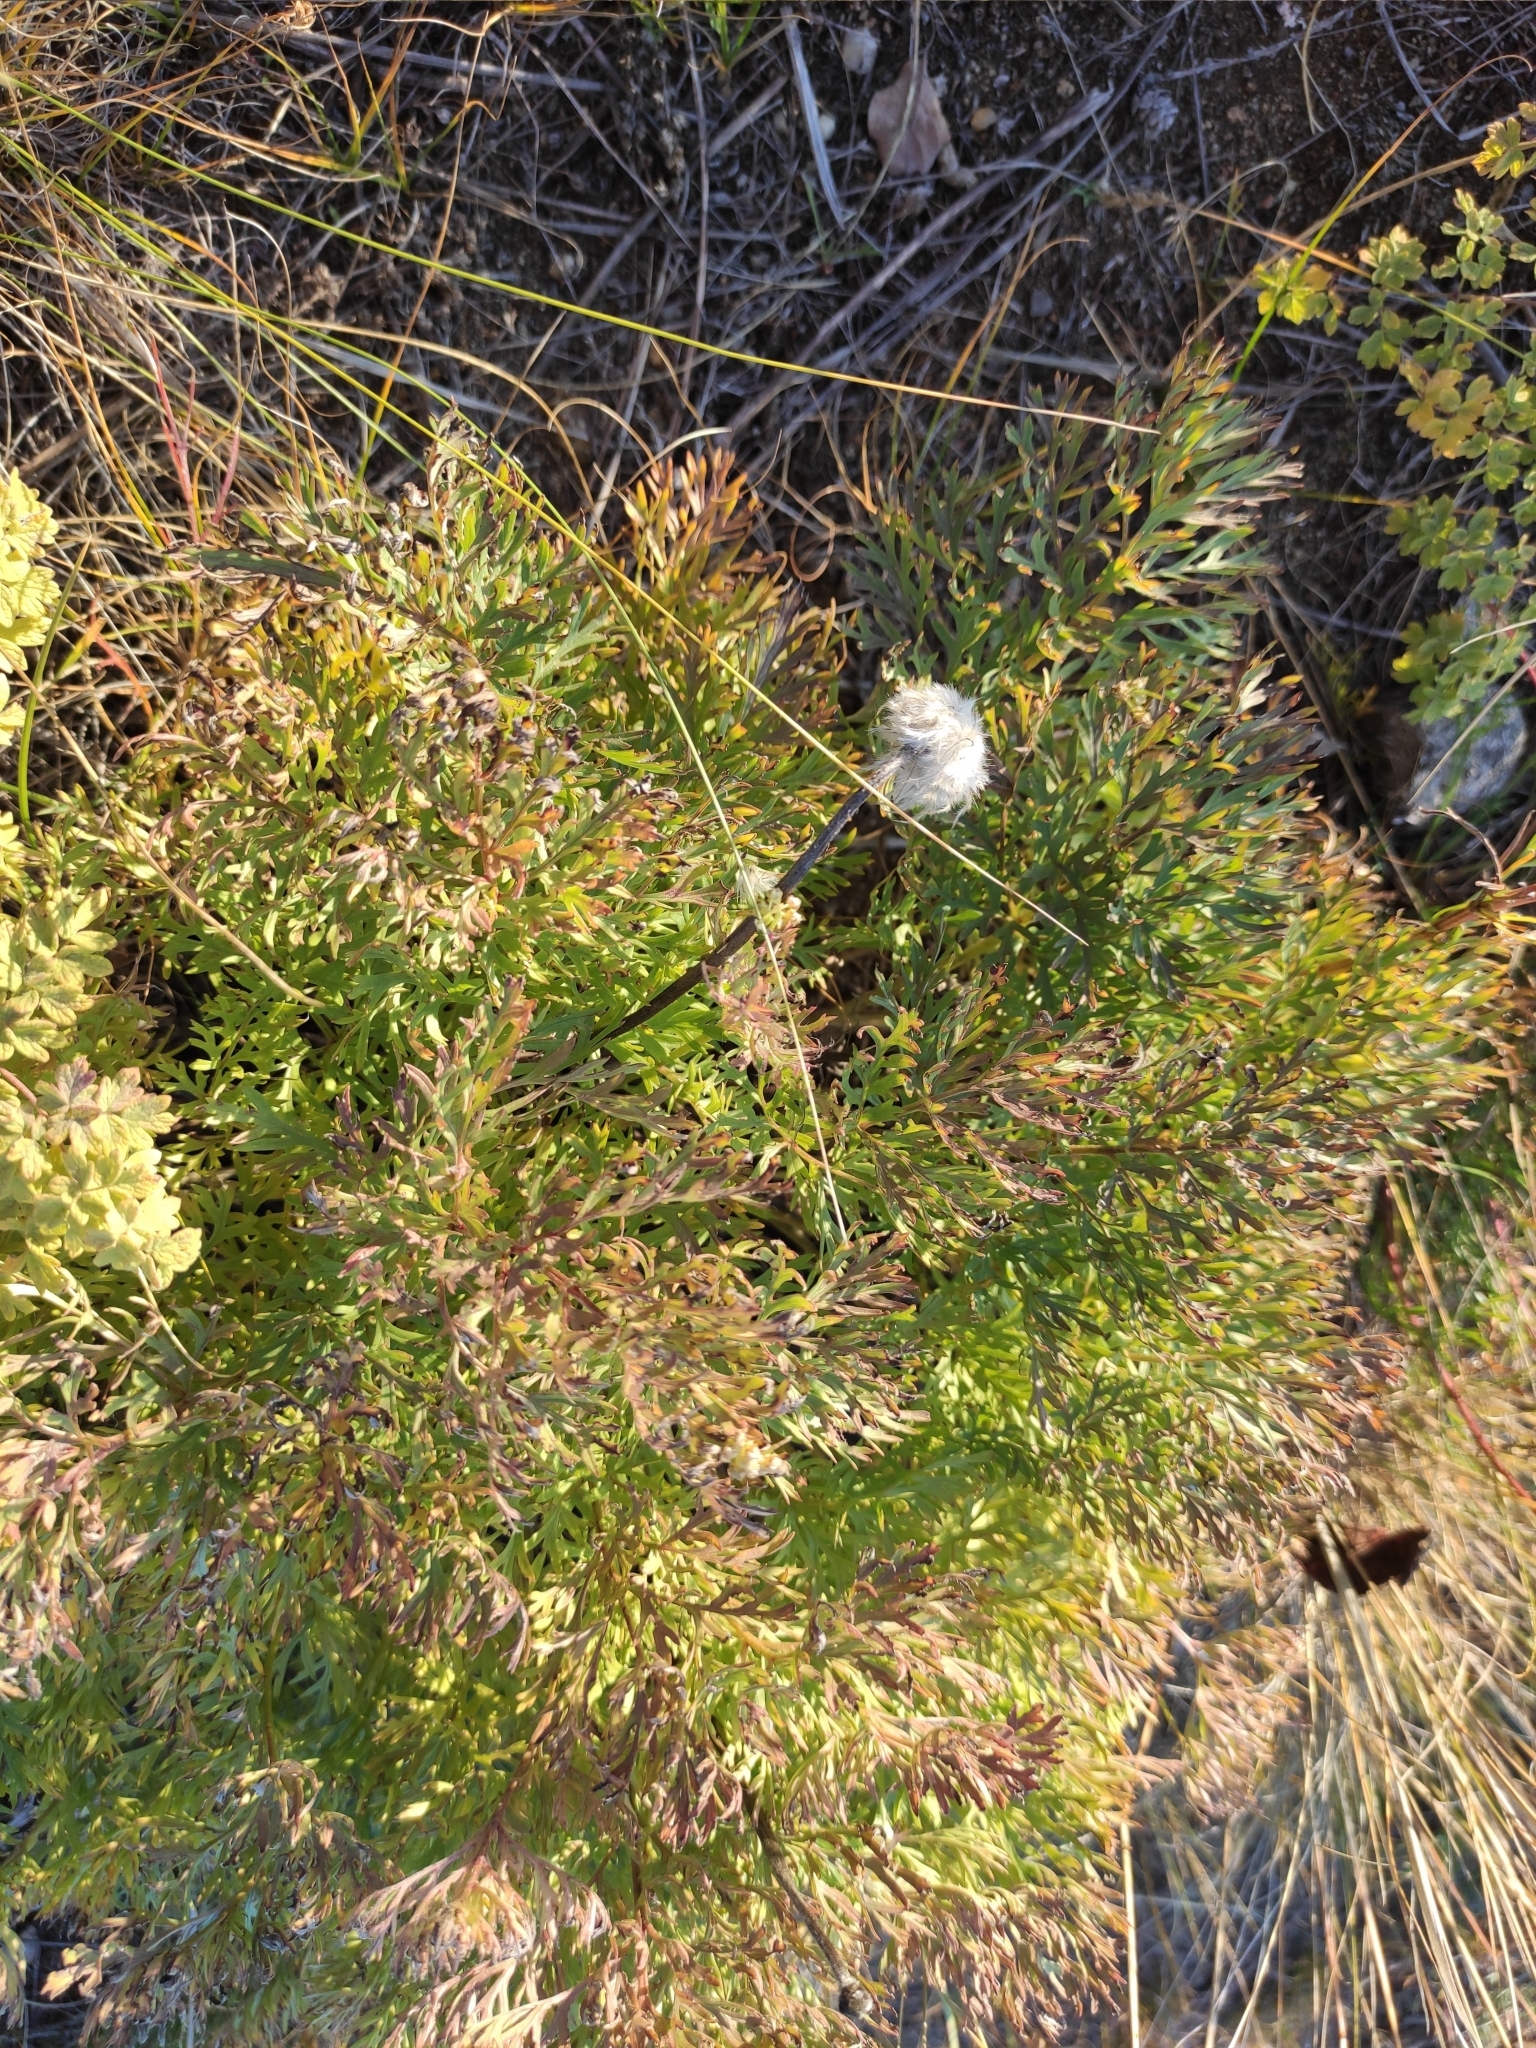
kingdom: Plantae
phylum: Tracheophyta
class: Magnoliopsida
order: Ranunculales
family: Ranunculaceae
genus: Pulsatilla
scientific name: Pulsatilla turczaninovii
